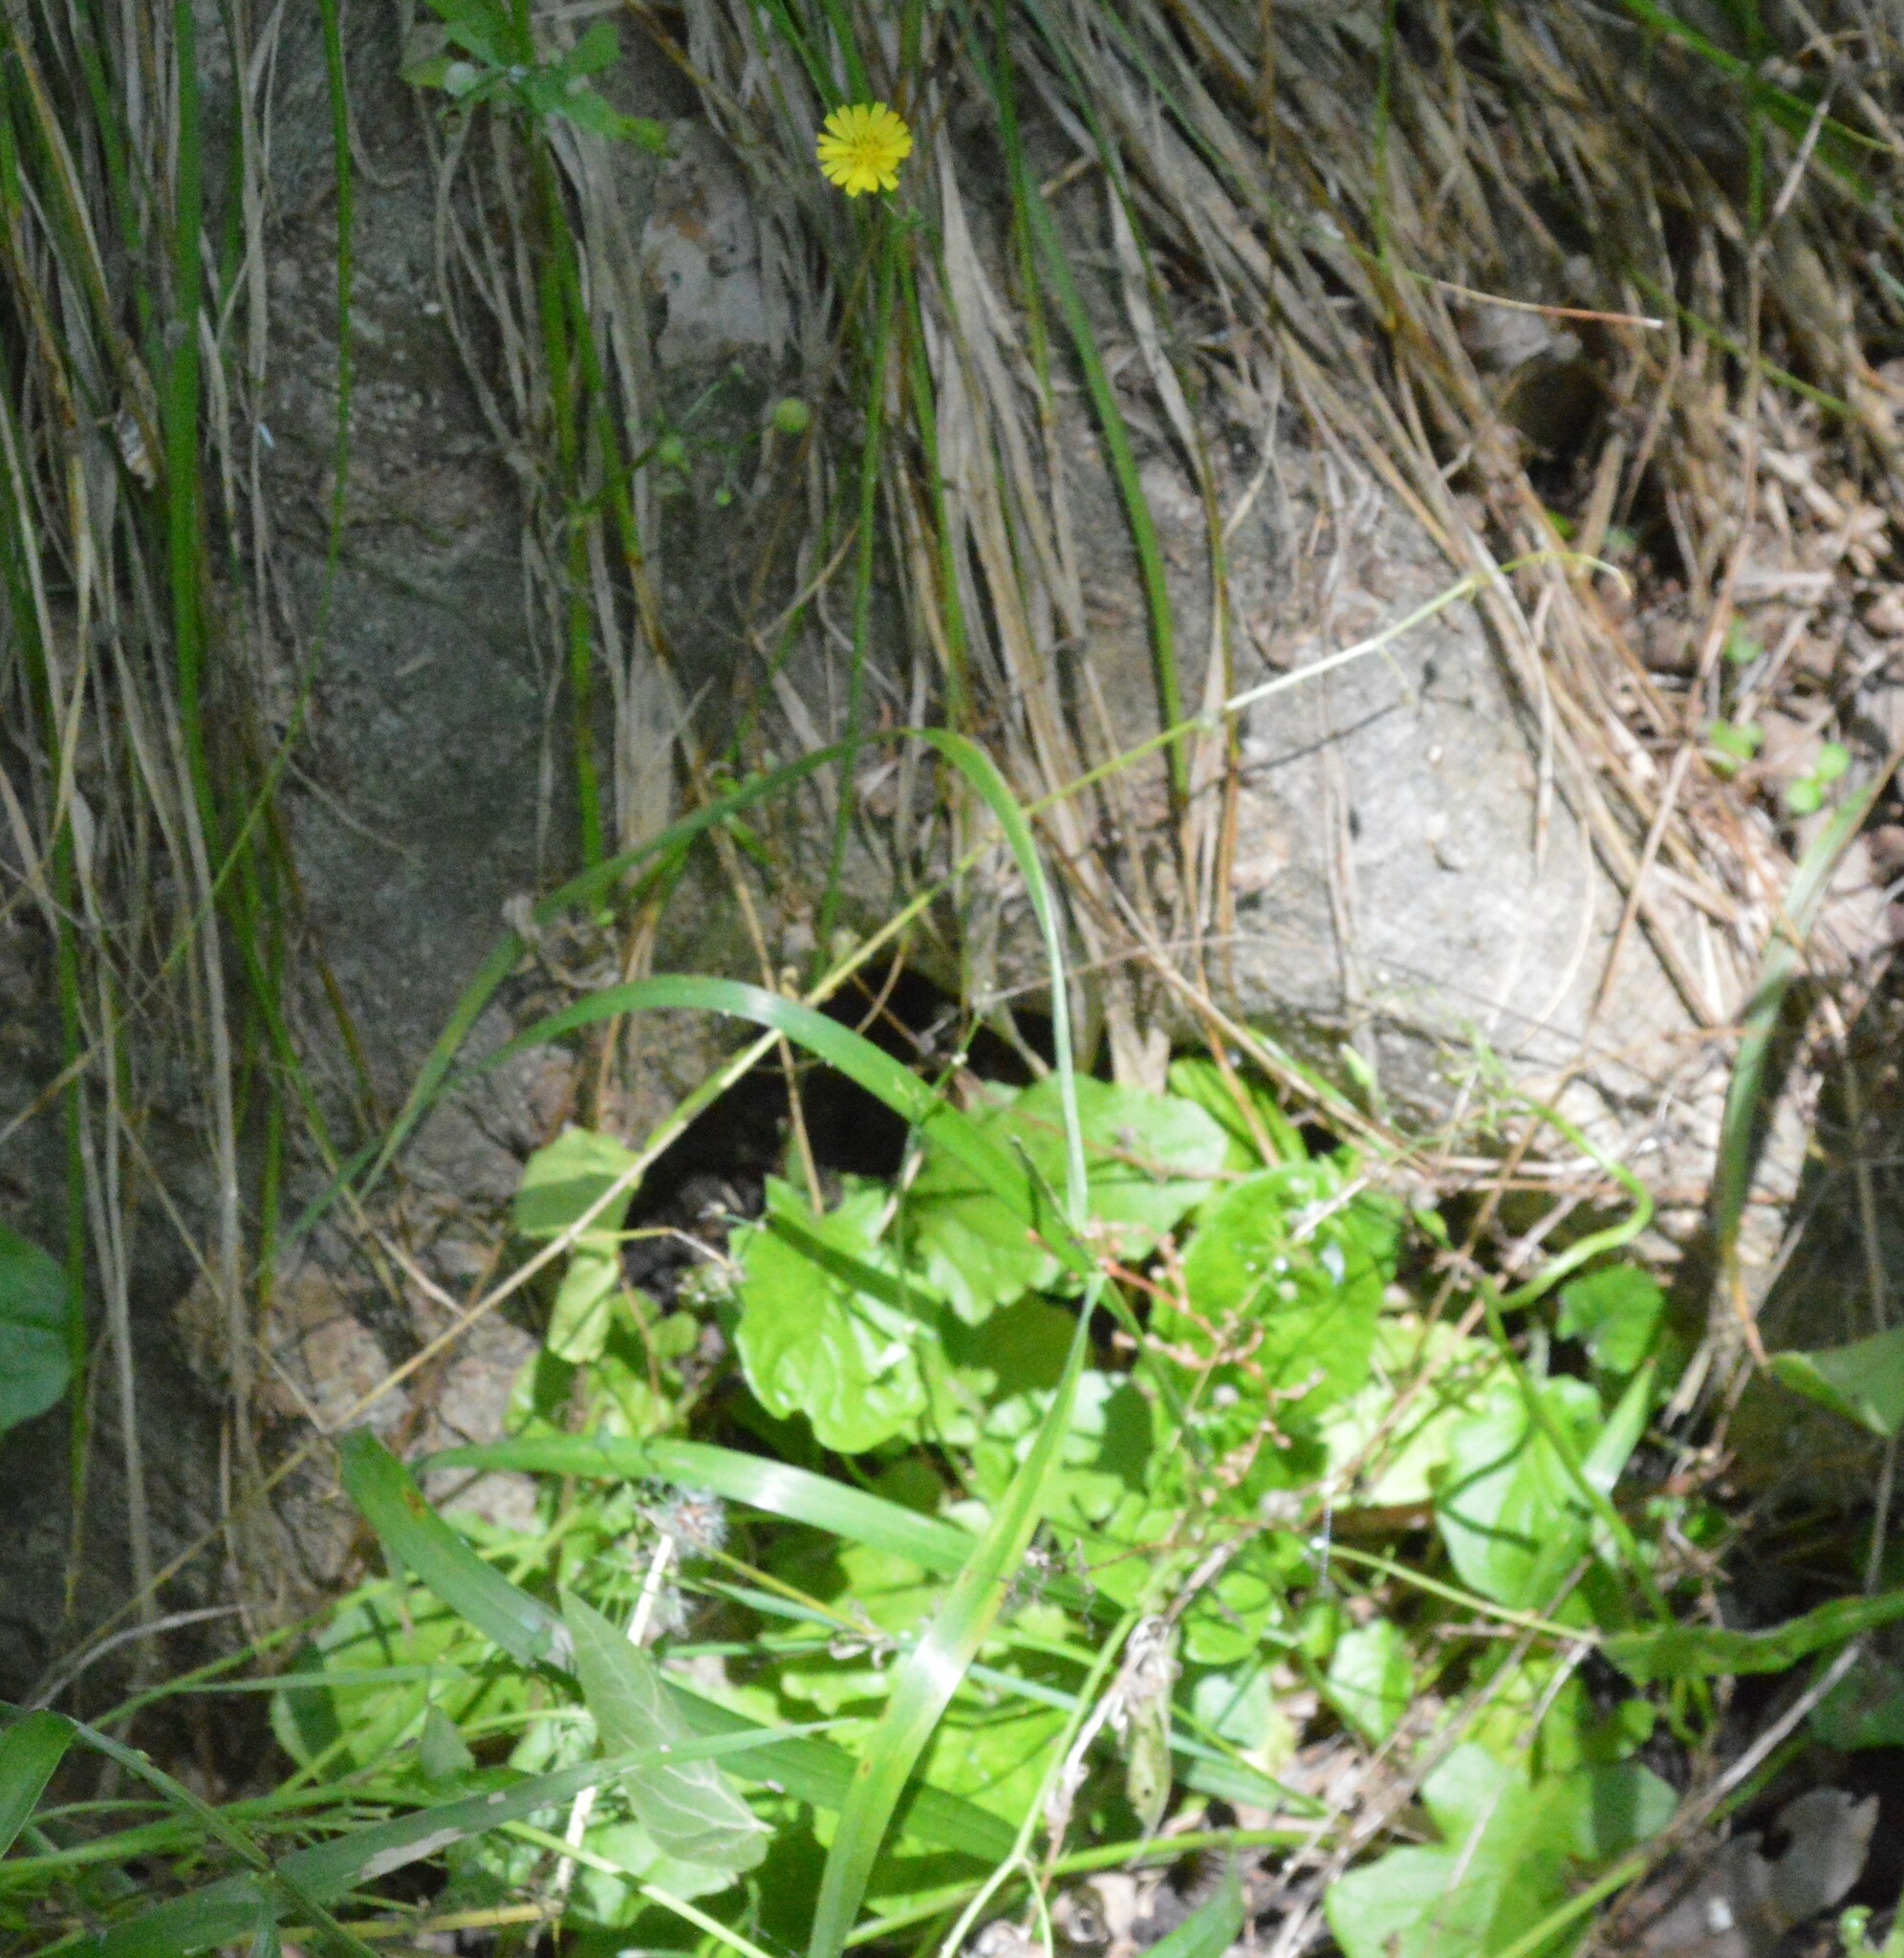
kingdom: Plantae
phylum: Tracheophyta
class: Magnoliopsida
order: Asterales
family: Asteraceae
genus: Youngia
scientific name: Youngia japonica
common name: Oriental false hawksbeard
